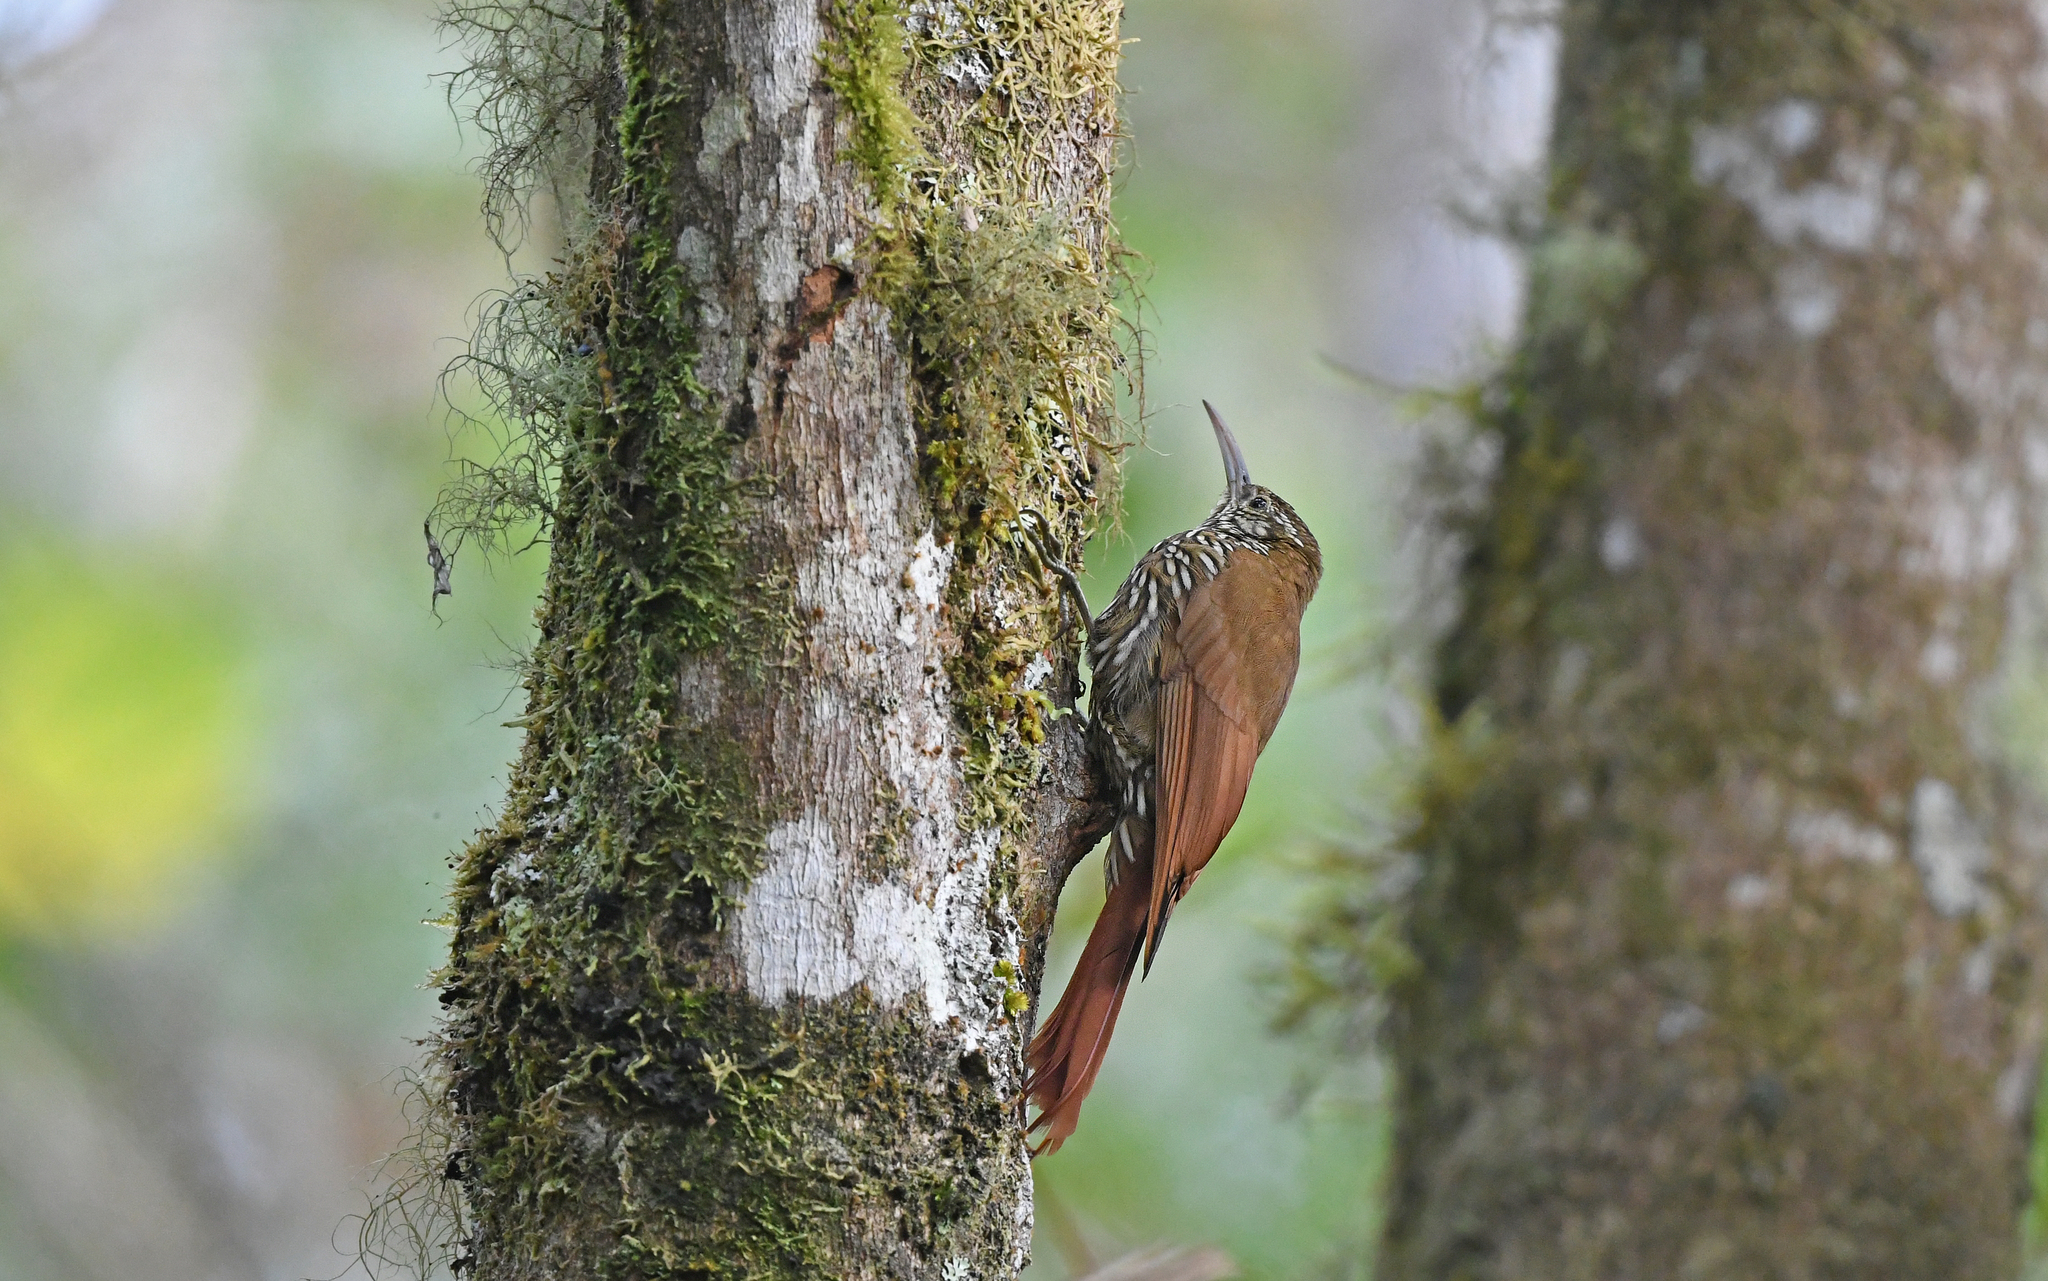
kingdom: Animalia
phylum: Chordata
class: Aves
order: Passeriformes
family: Furnariidae
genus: Lepidocolaptes
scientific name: Lepidocolaptes lacrymiger
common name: Montane woodcreeper
